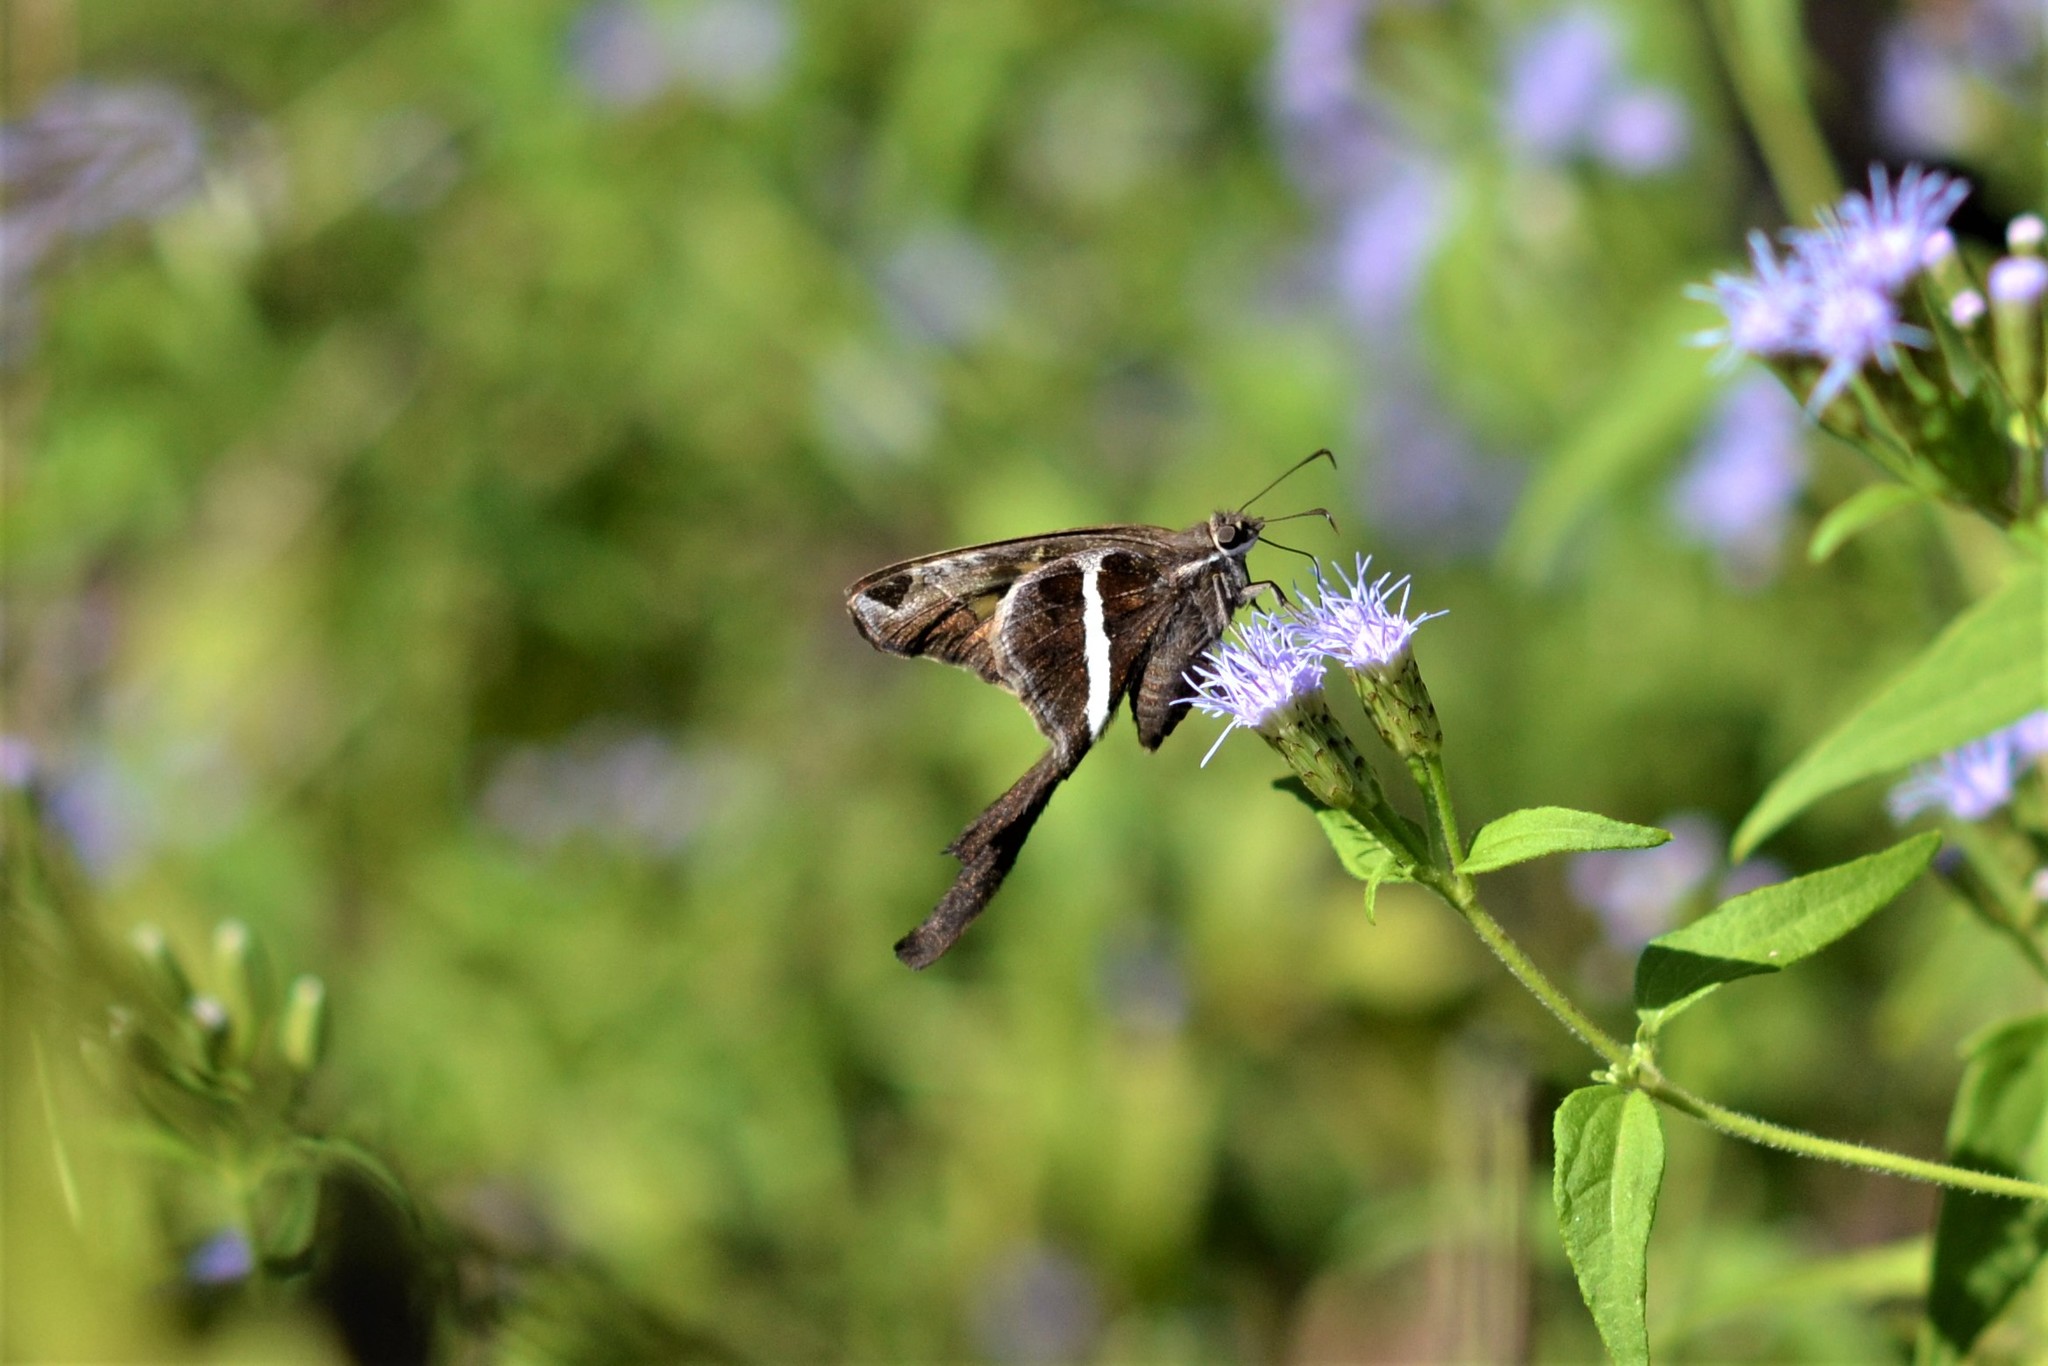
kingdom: Animalia
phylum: Arthropoda
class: Insecta
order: Lepidoptera
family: Hesperiidae
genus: Chioides
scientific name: Chioides catillus
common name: Silverbanded skipper
